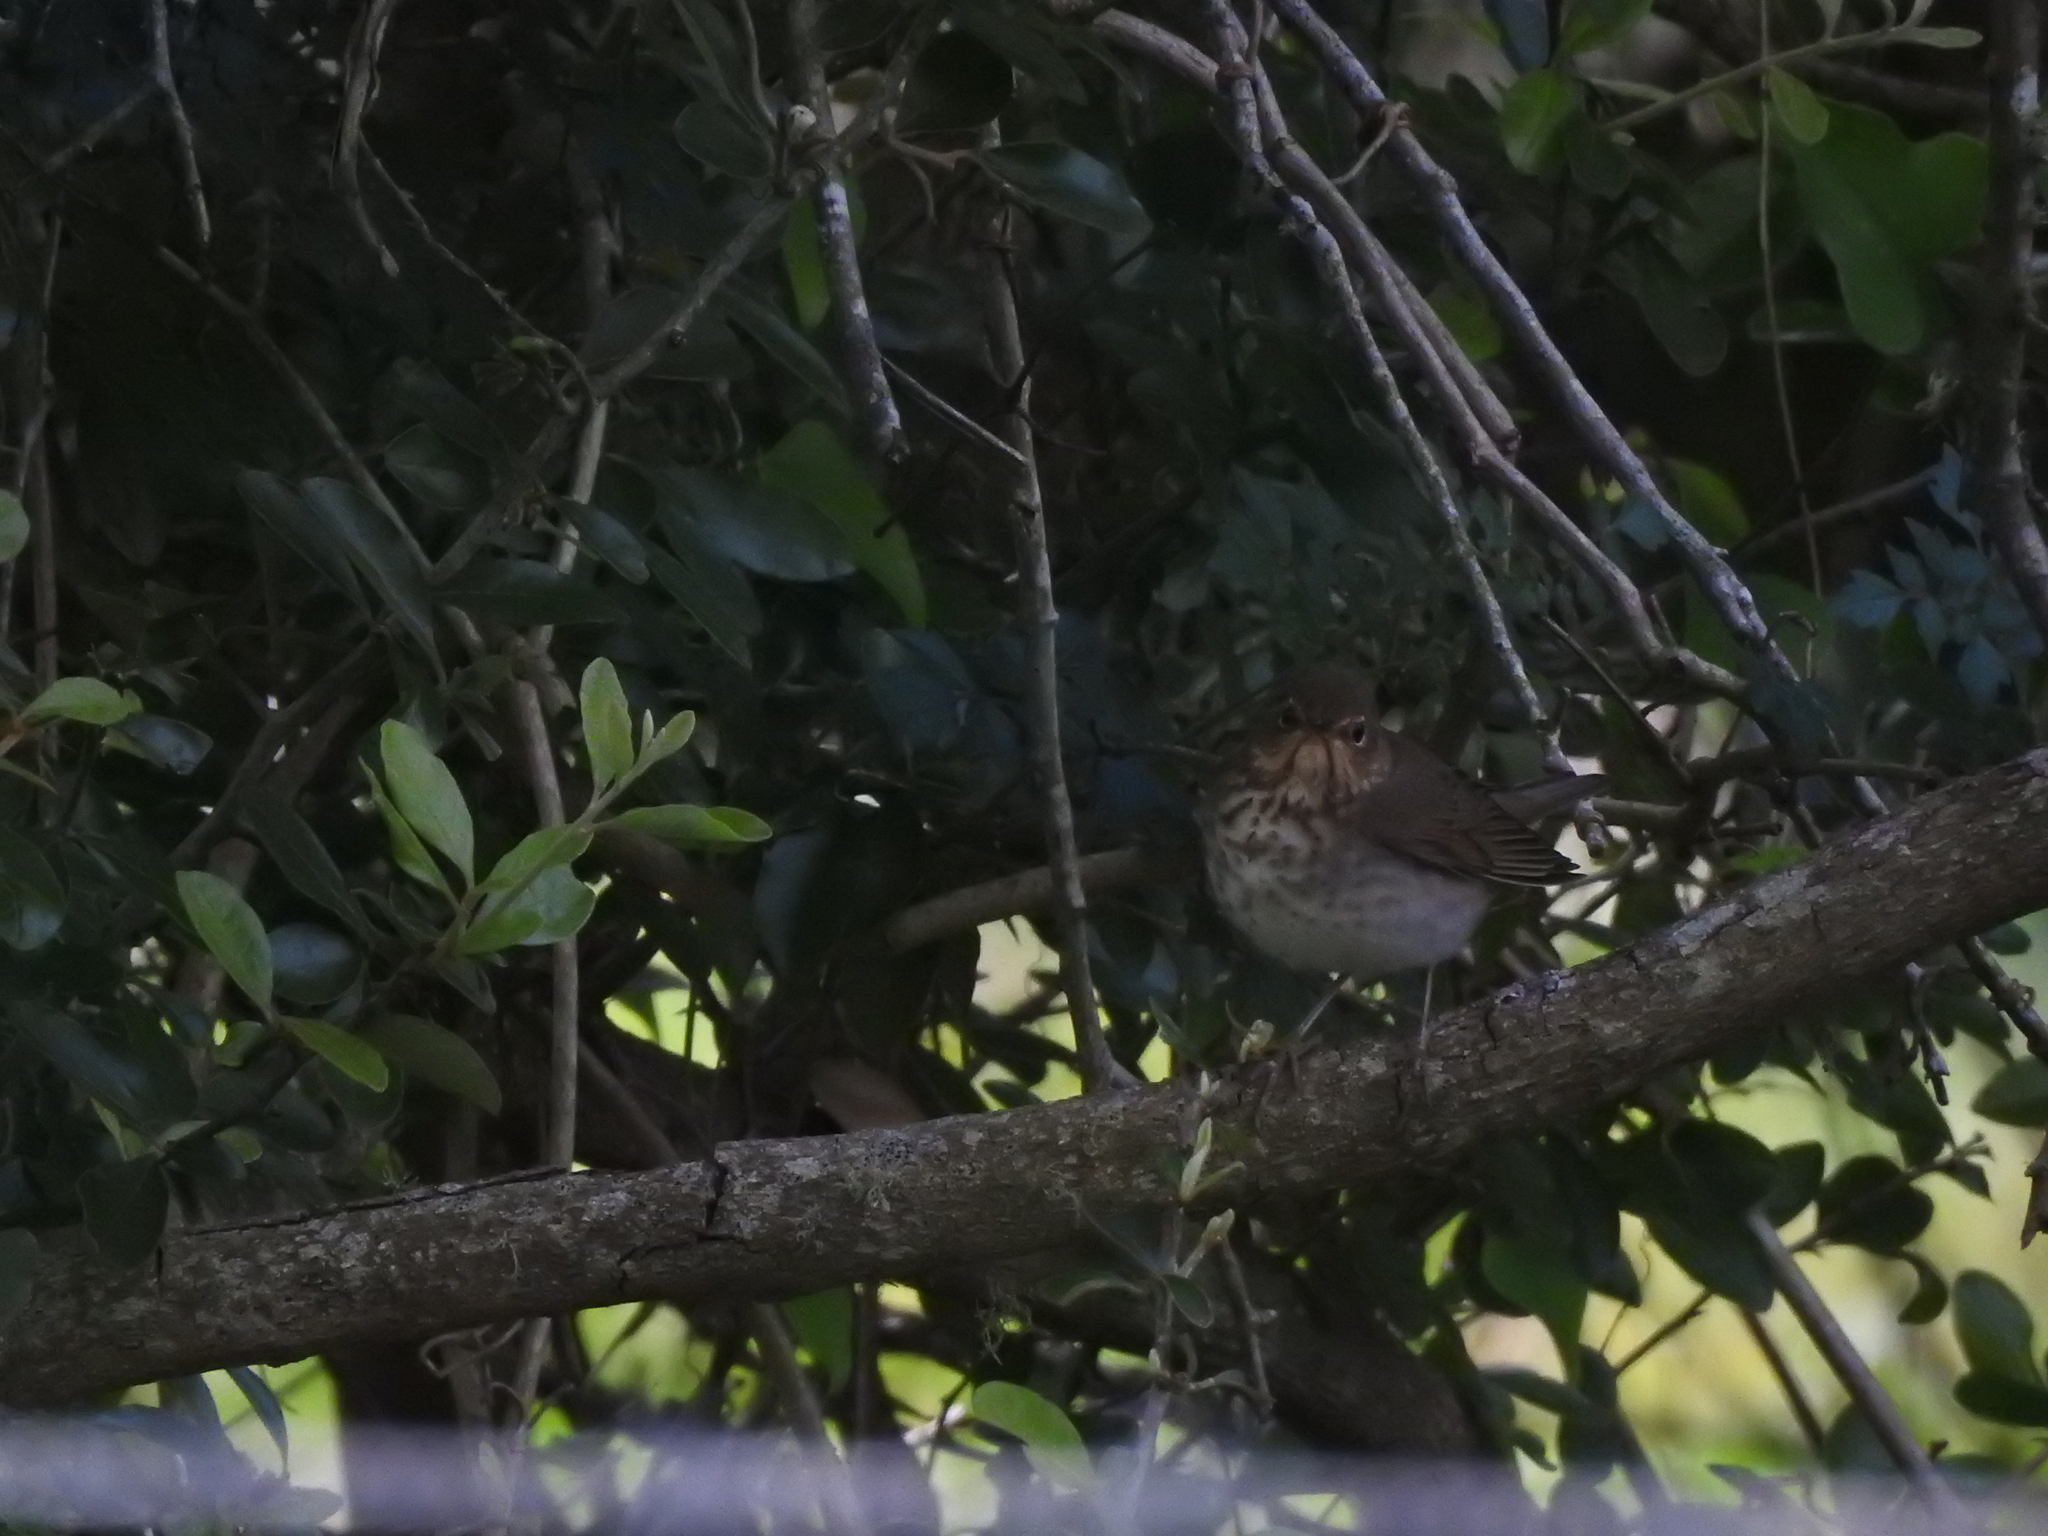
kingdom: Animalia
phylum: Chordata
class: Aves
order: Passeriformes
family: Turdidae
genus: Catharus
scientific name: Catharus ustulatus
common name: Swainson's thrush
